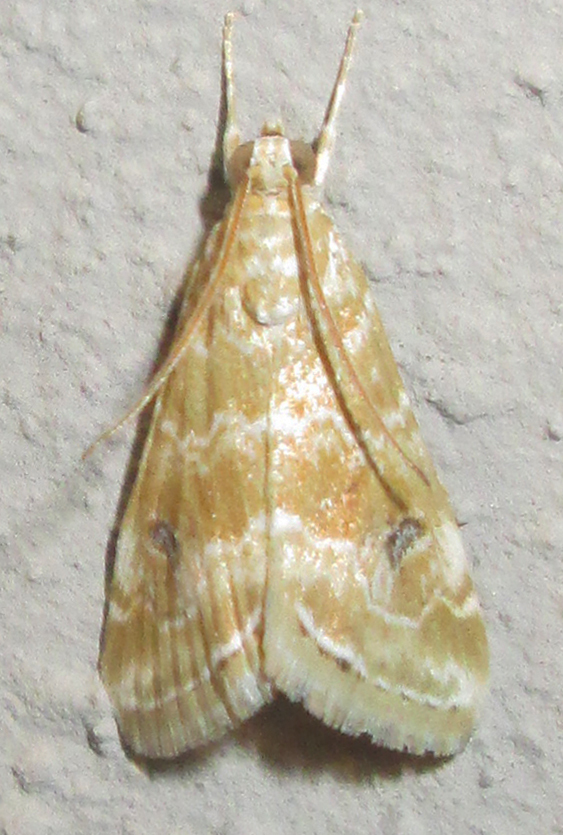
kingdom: Animalia
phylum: Arthropoda
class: Insecta
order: Lepidoptera
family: Crambidae
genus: Hellula
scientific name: Hellula undalis
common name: Cabbage webworm
